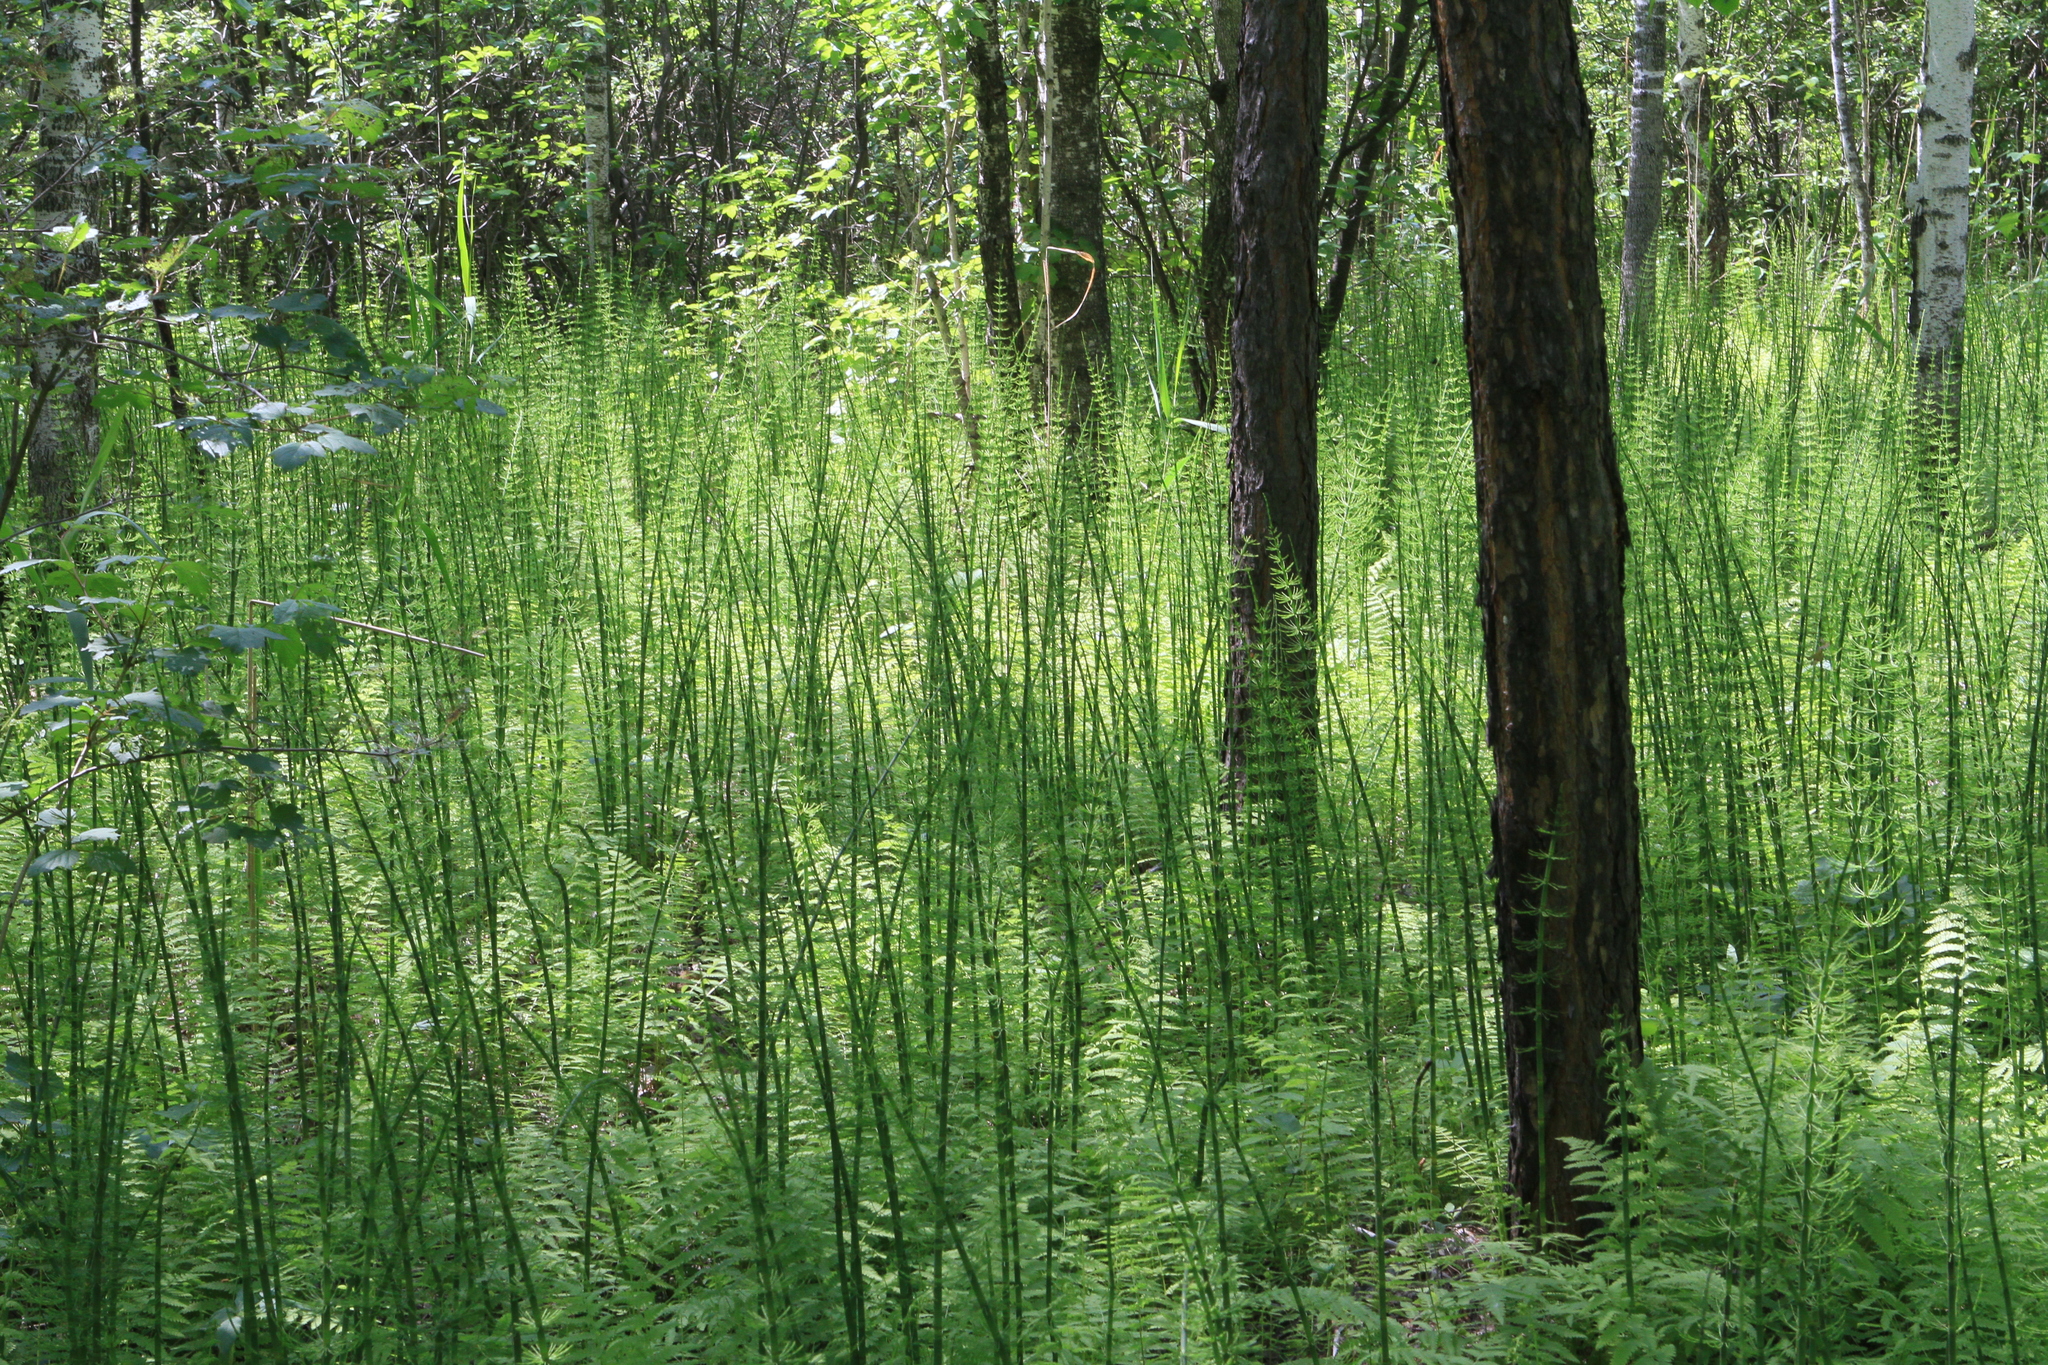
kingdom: Plantae
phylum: Tracheophyta
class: Polypodiopsida
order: Polypodiales
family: Thelypteridaceae
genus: Thelypteris
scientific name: Thelypteris palustris
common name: Marsh fern
